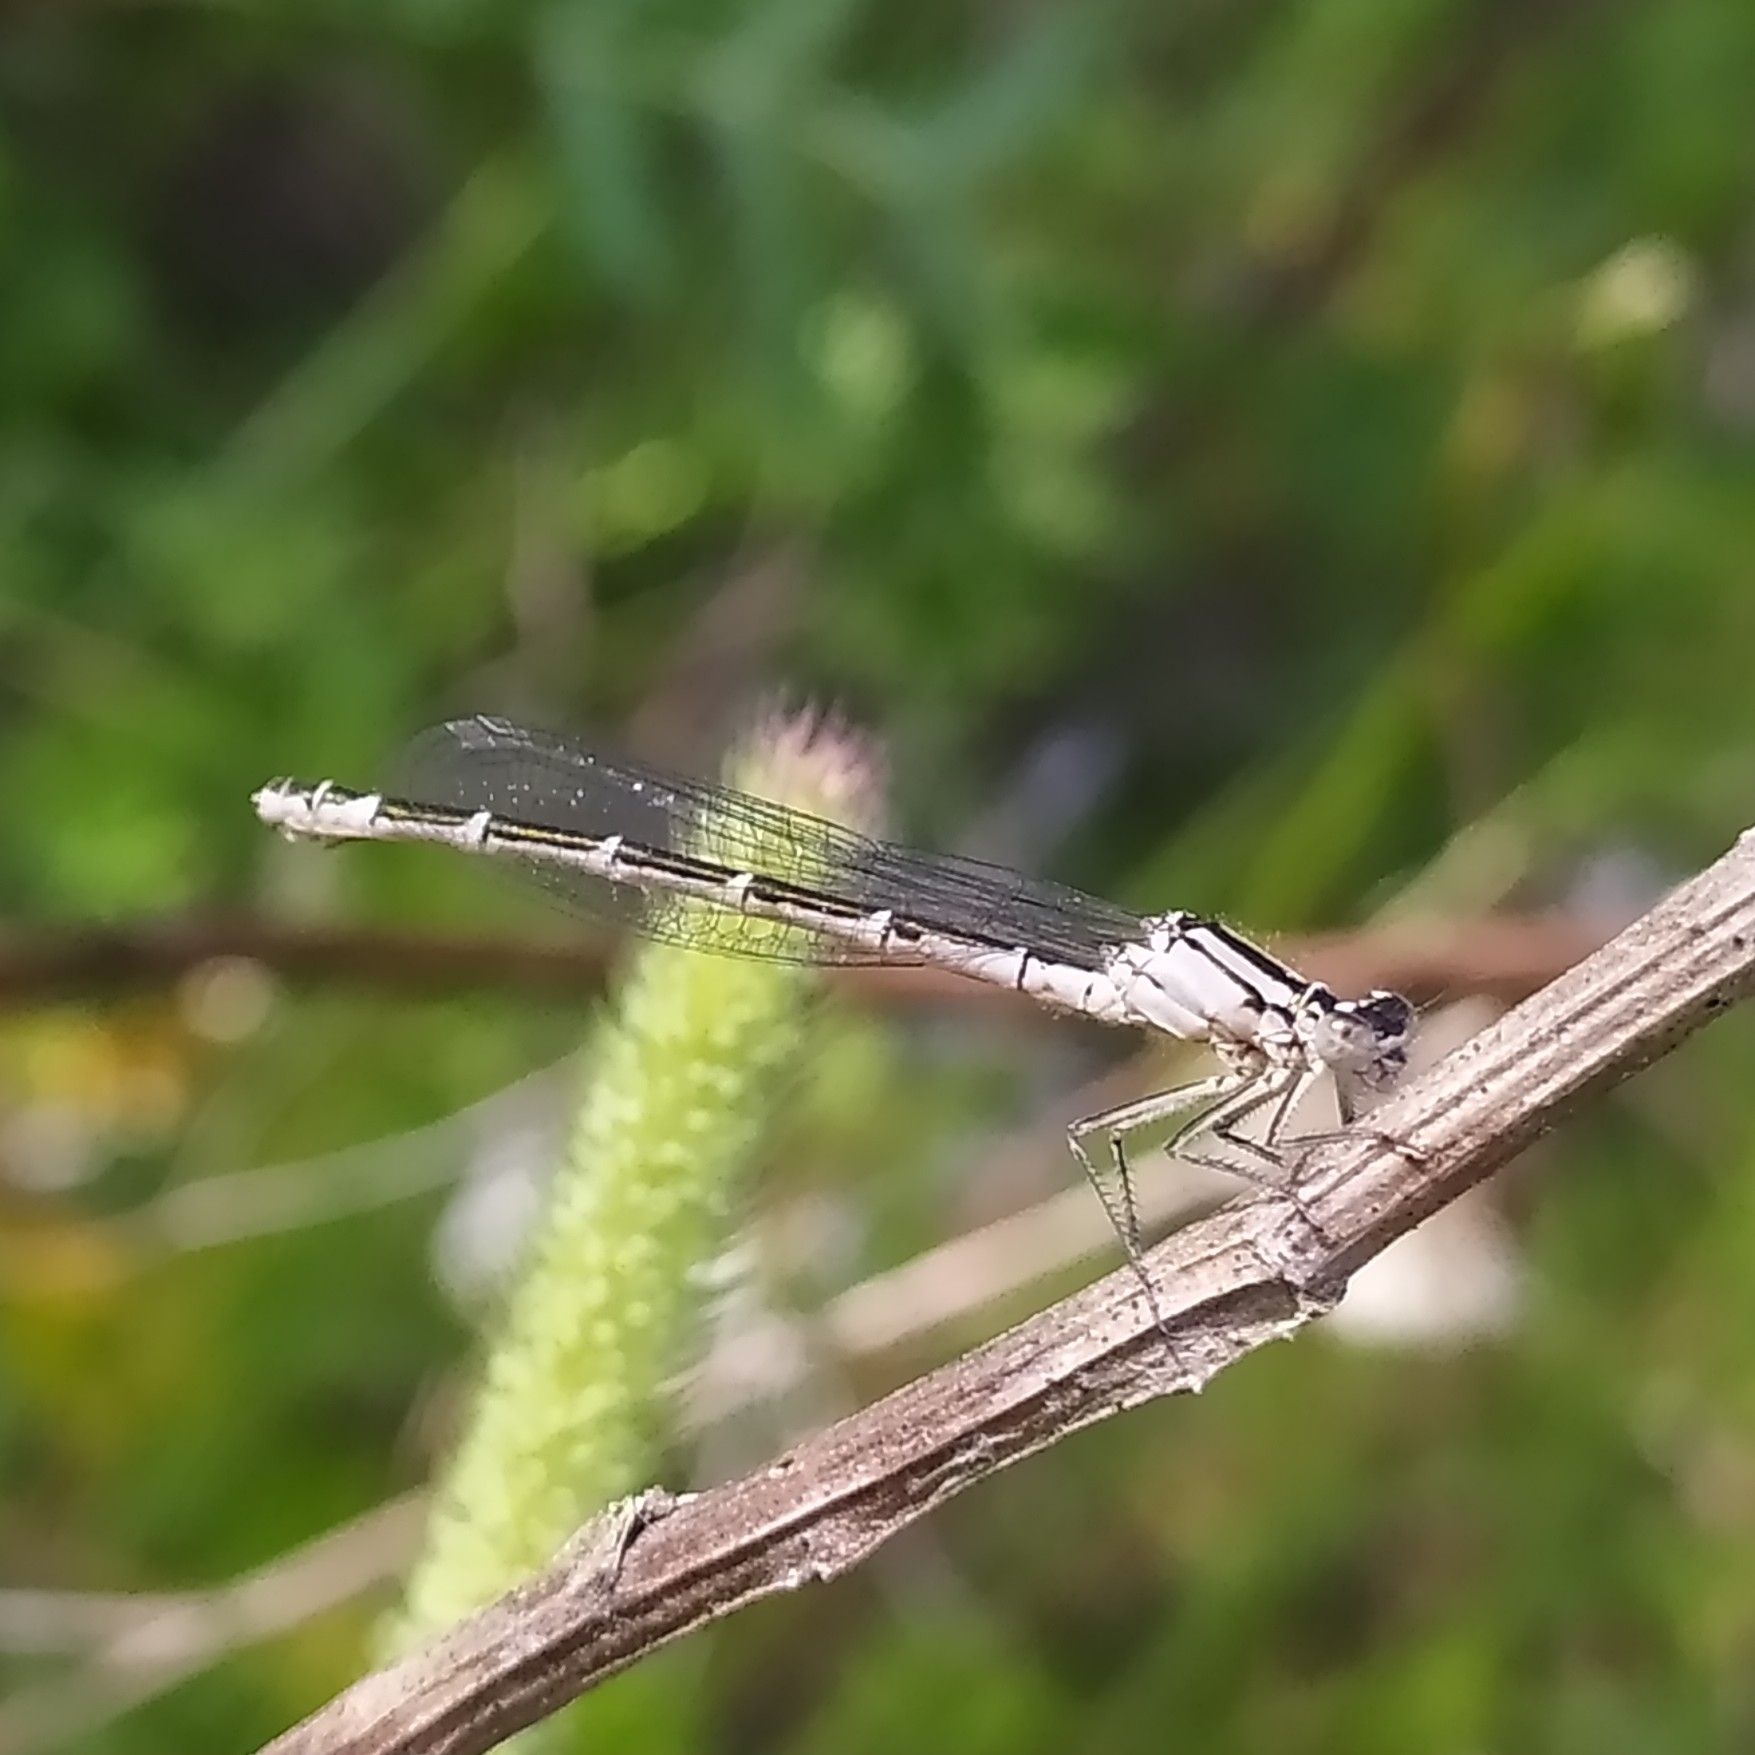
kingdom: Animalia
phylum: Arthropoda
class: Insecta
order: Odonata
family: Coenagrionidae
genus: Enallagma
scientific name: Enallagma cyathigerum
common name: Common blue damselfly
